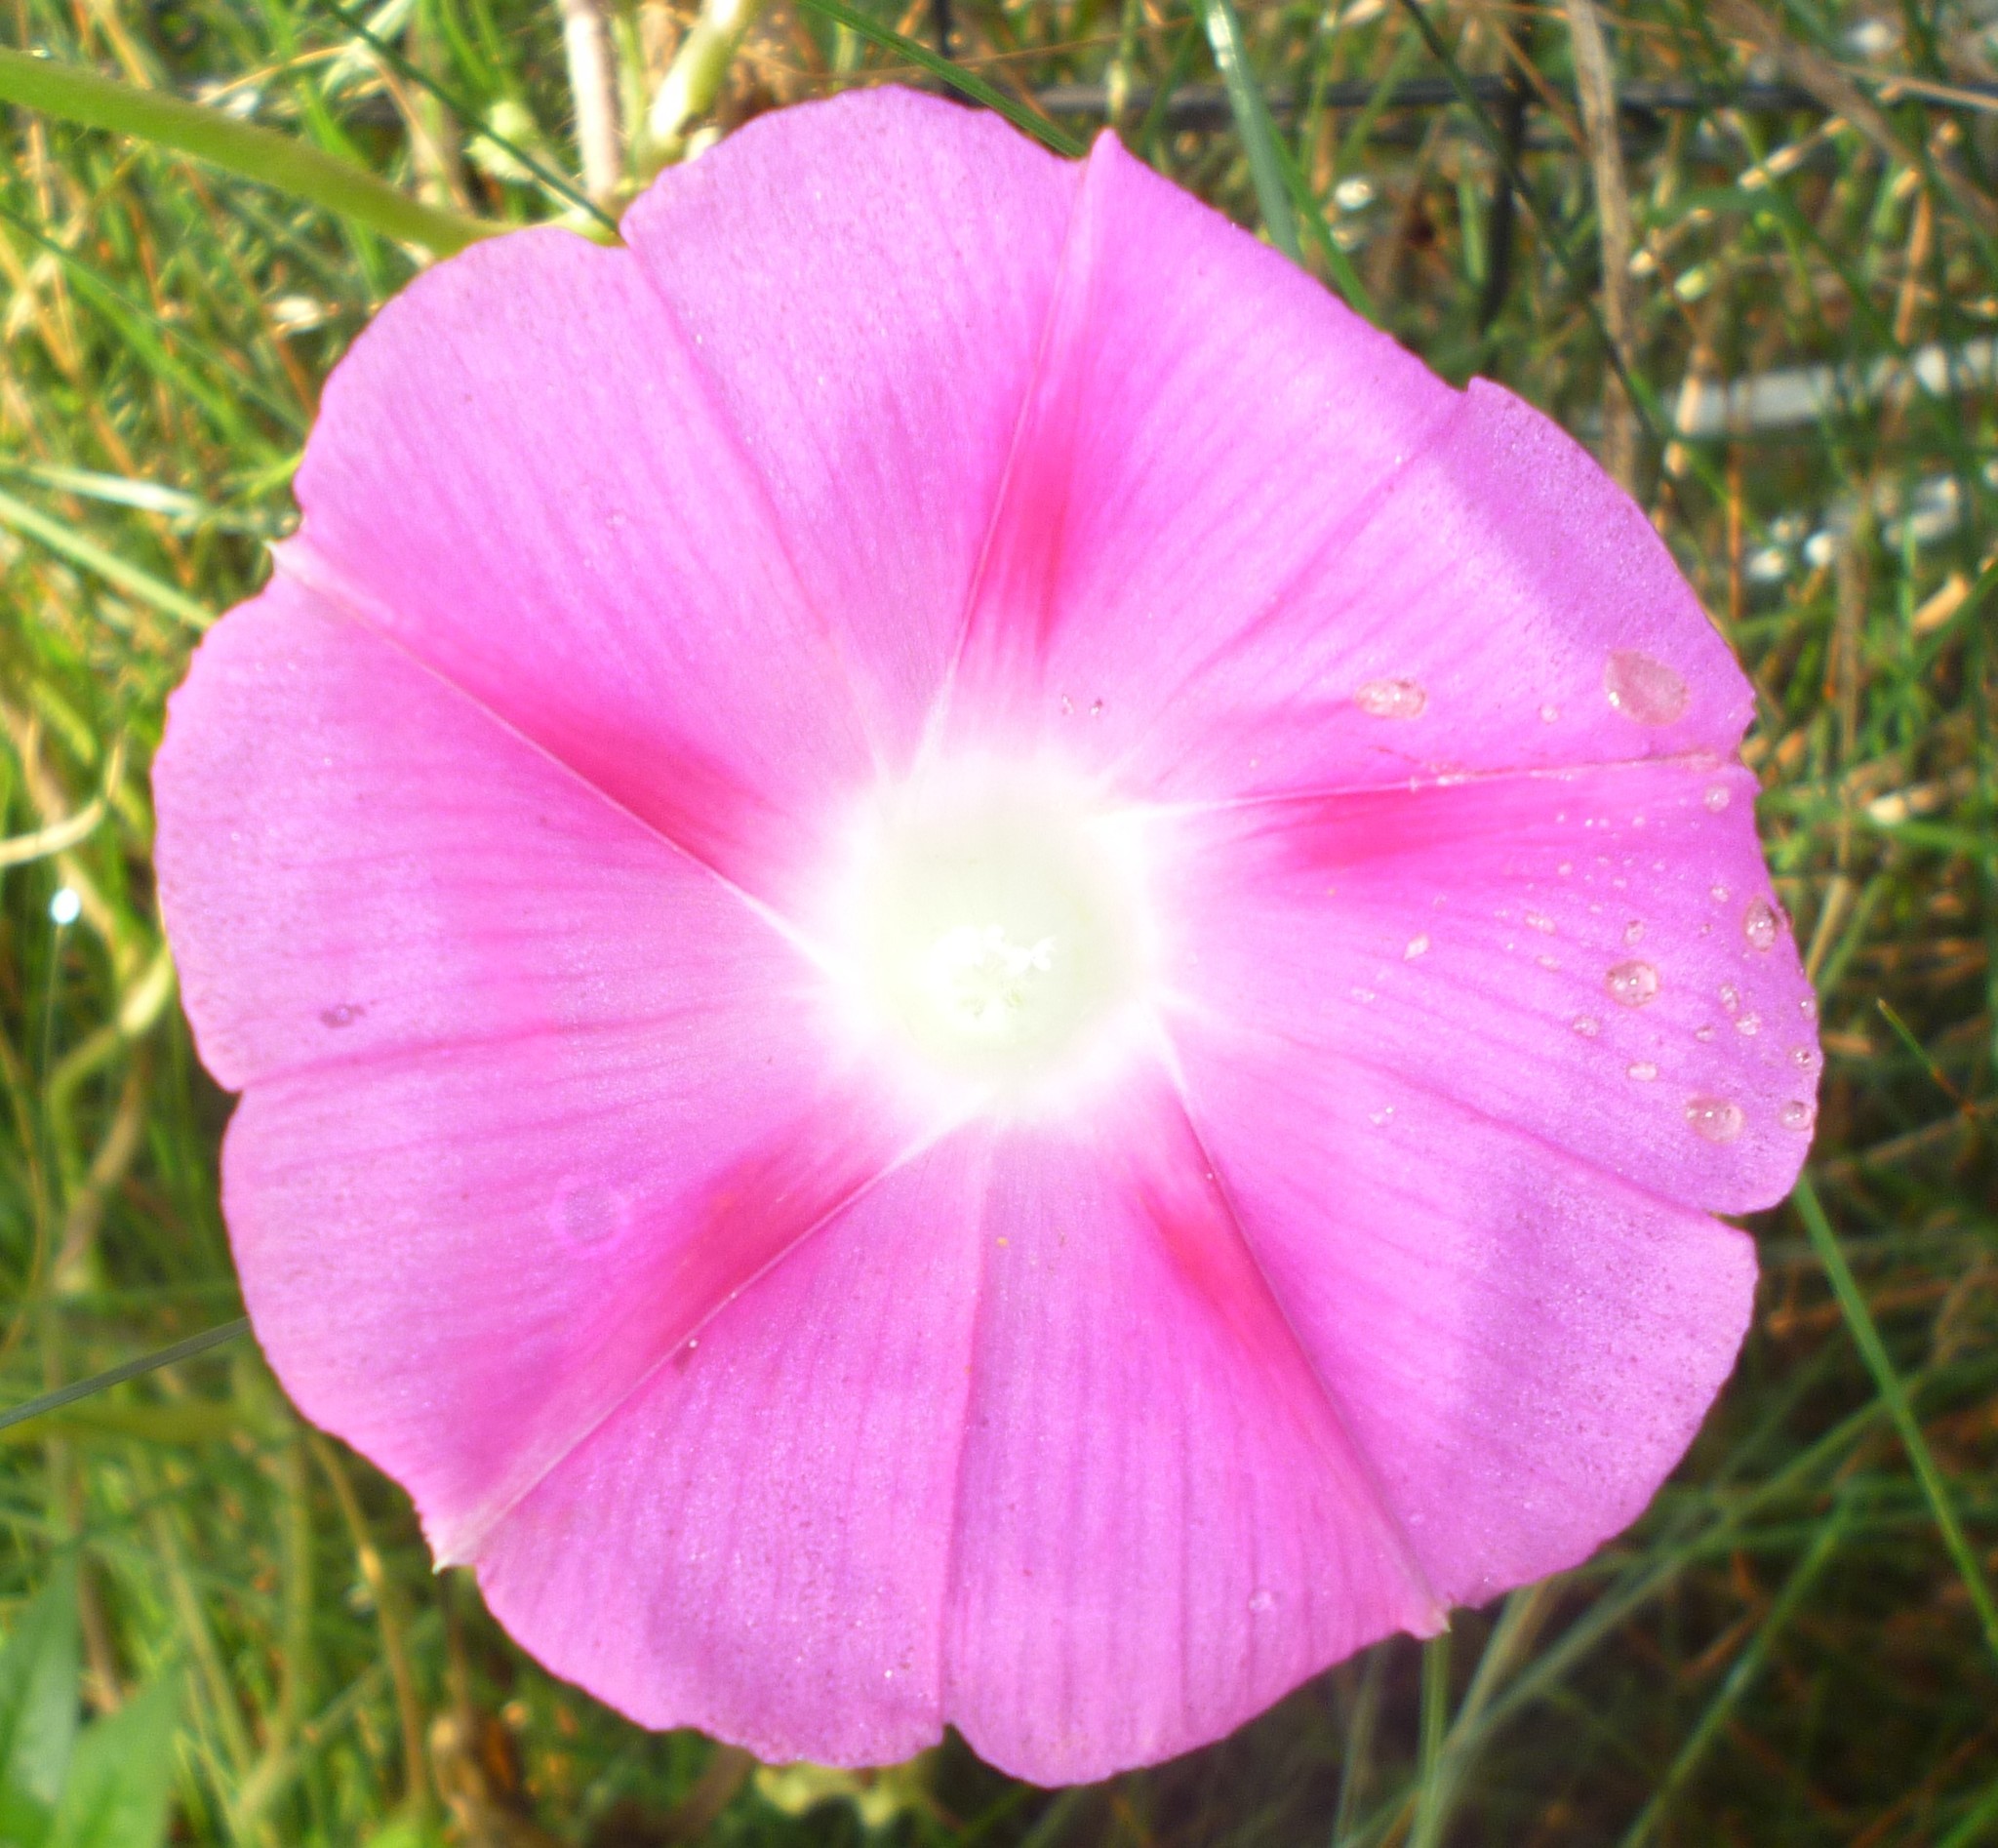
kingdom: Plantae
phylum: Tracheophyta
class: Magnoliopsida
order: Solanales
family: Convolvulaceae
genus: Ipomoea
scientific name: Ipomoea purpurea
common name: Common morning-glory
